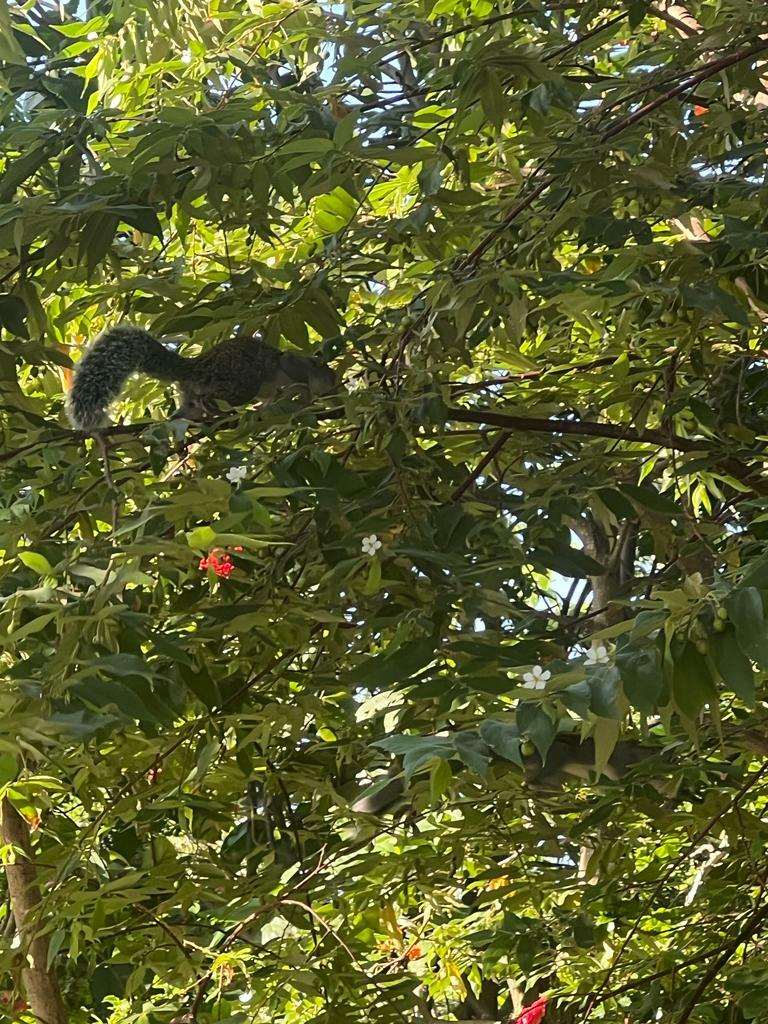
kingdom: Animalia
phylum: Chordata
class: Mammalia
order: Rodentia
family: Sciuridae
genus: Sciurus
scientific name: Sciurus yucatanensis
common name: Yucatan squirrel
